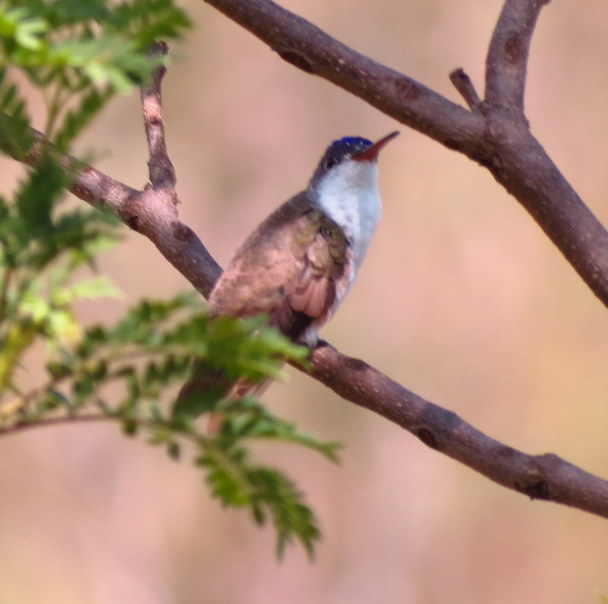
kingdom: Animalia
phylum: Chordata
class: Aves
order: Apodiformes
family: Trochilidae
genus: Leucolia
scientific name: Leucolia violiceps
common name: Violet-crowned hummingbird
